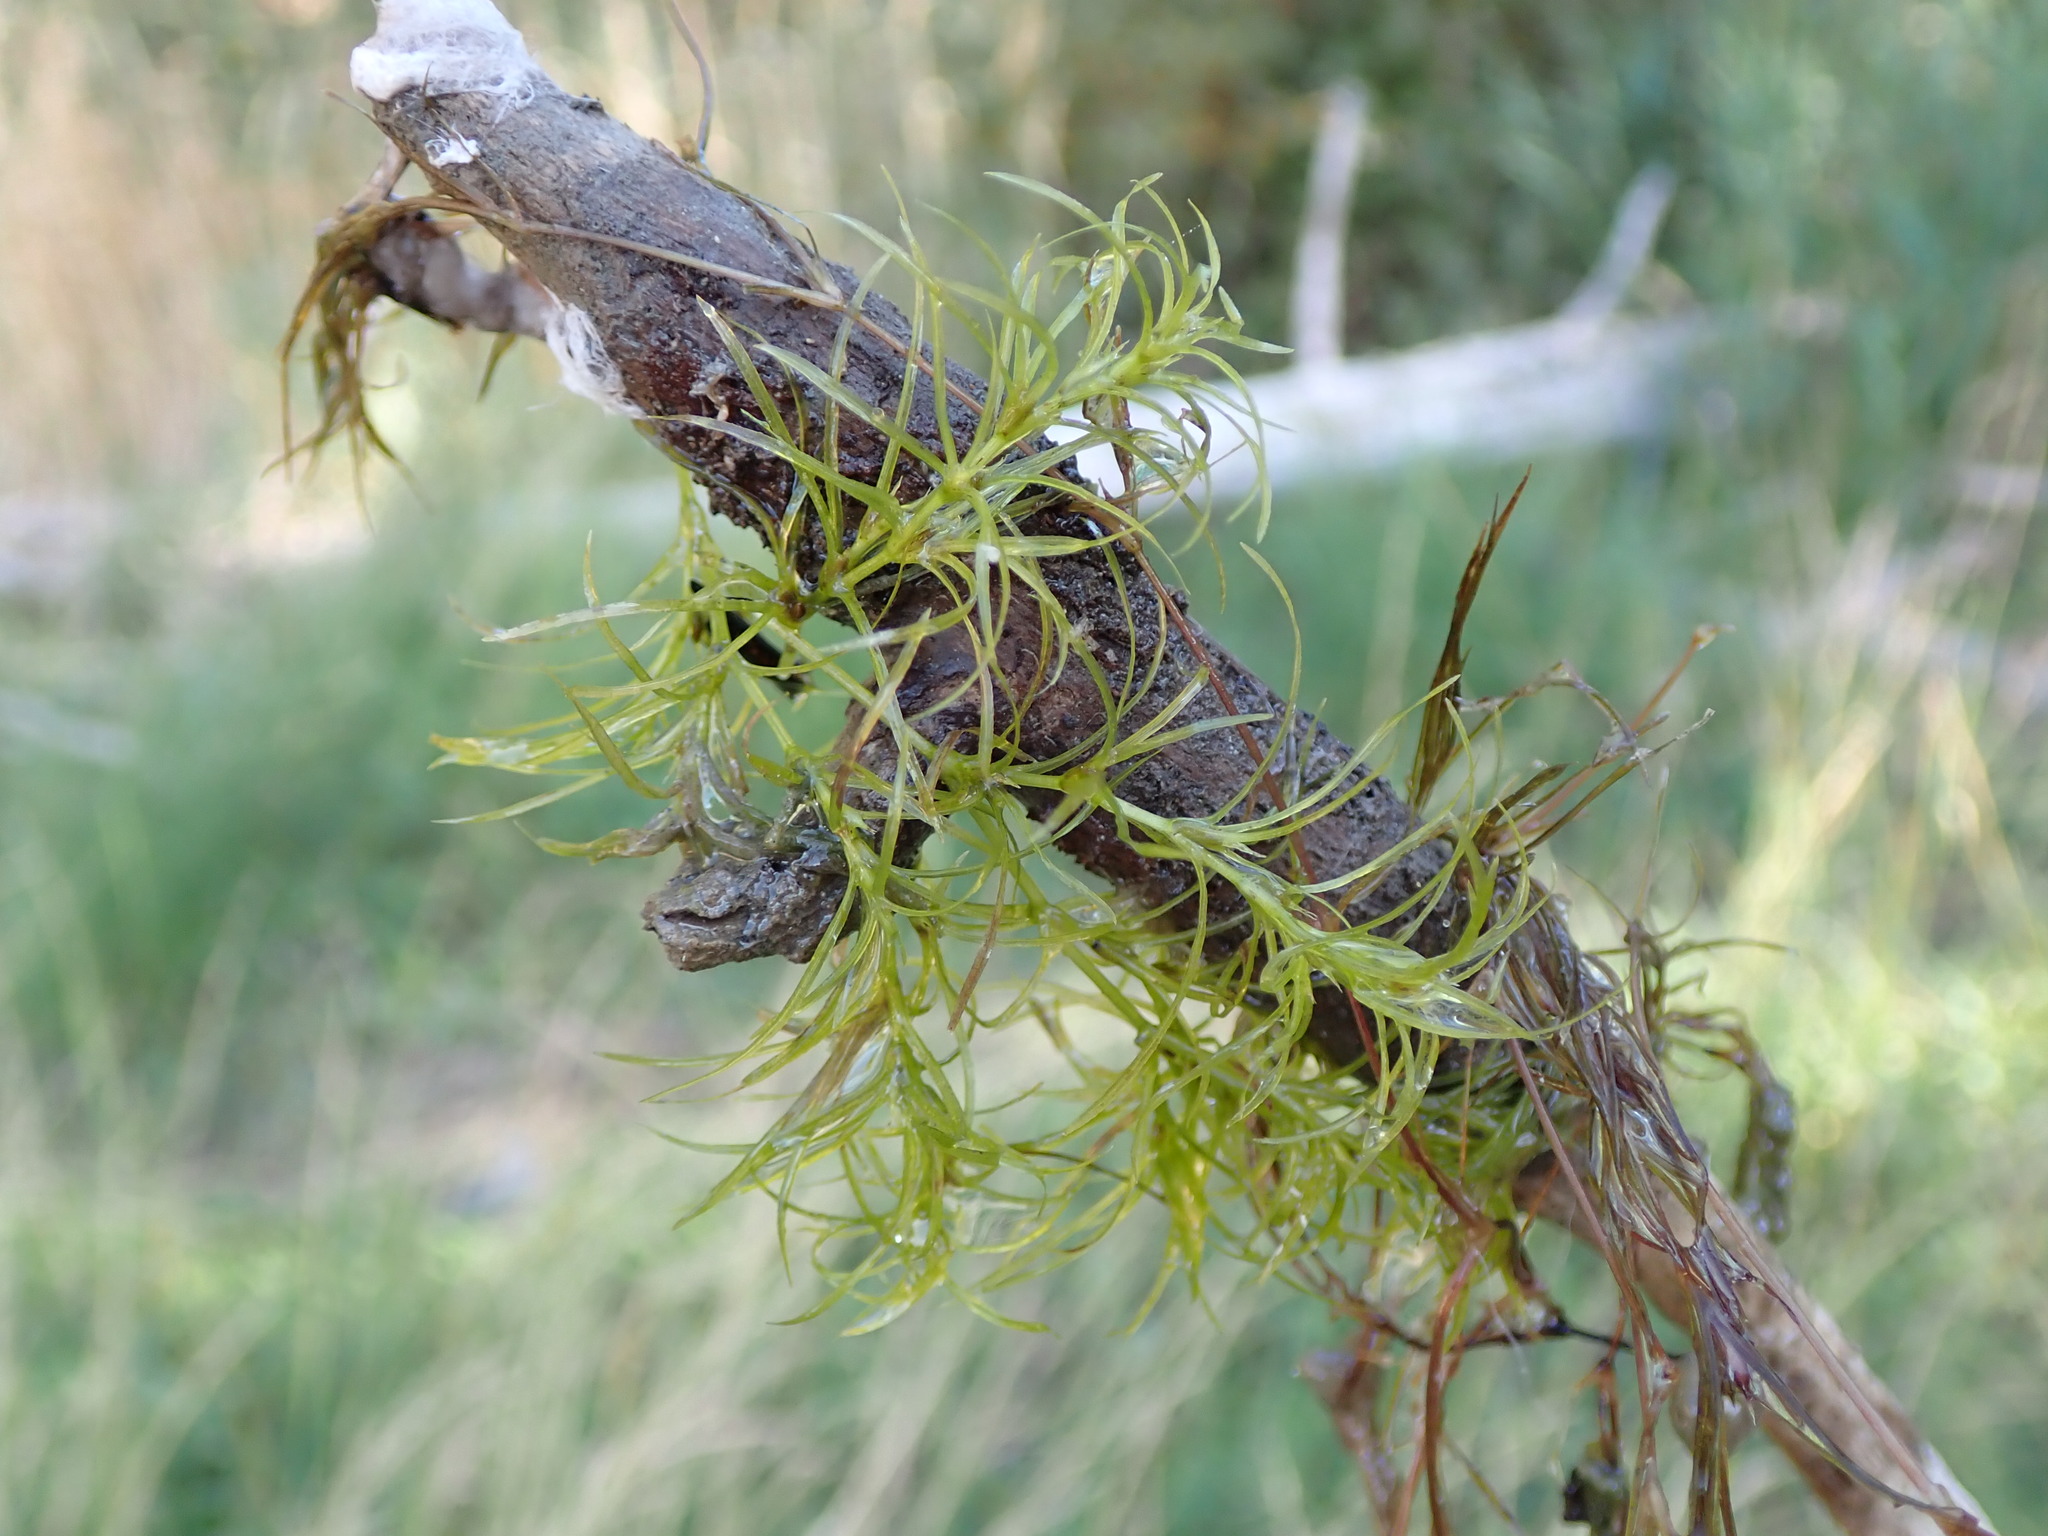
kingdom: Plantae
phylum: Tracheophyta
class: Liliopsida
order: Alismatales
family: Hydrocharitaceae
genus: Najas
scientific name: Najas flexilis
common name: Slender naiad
